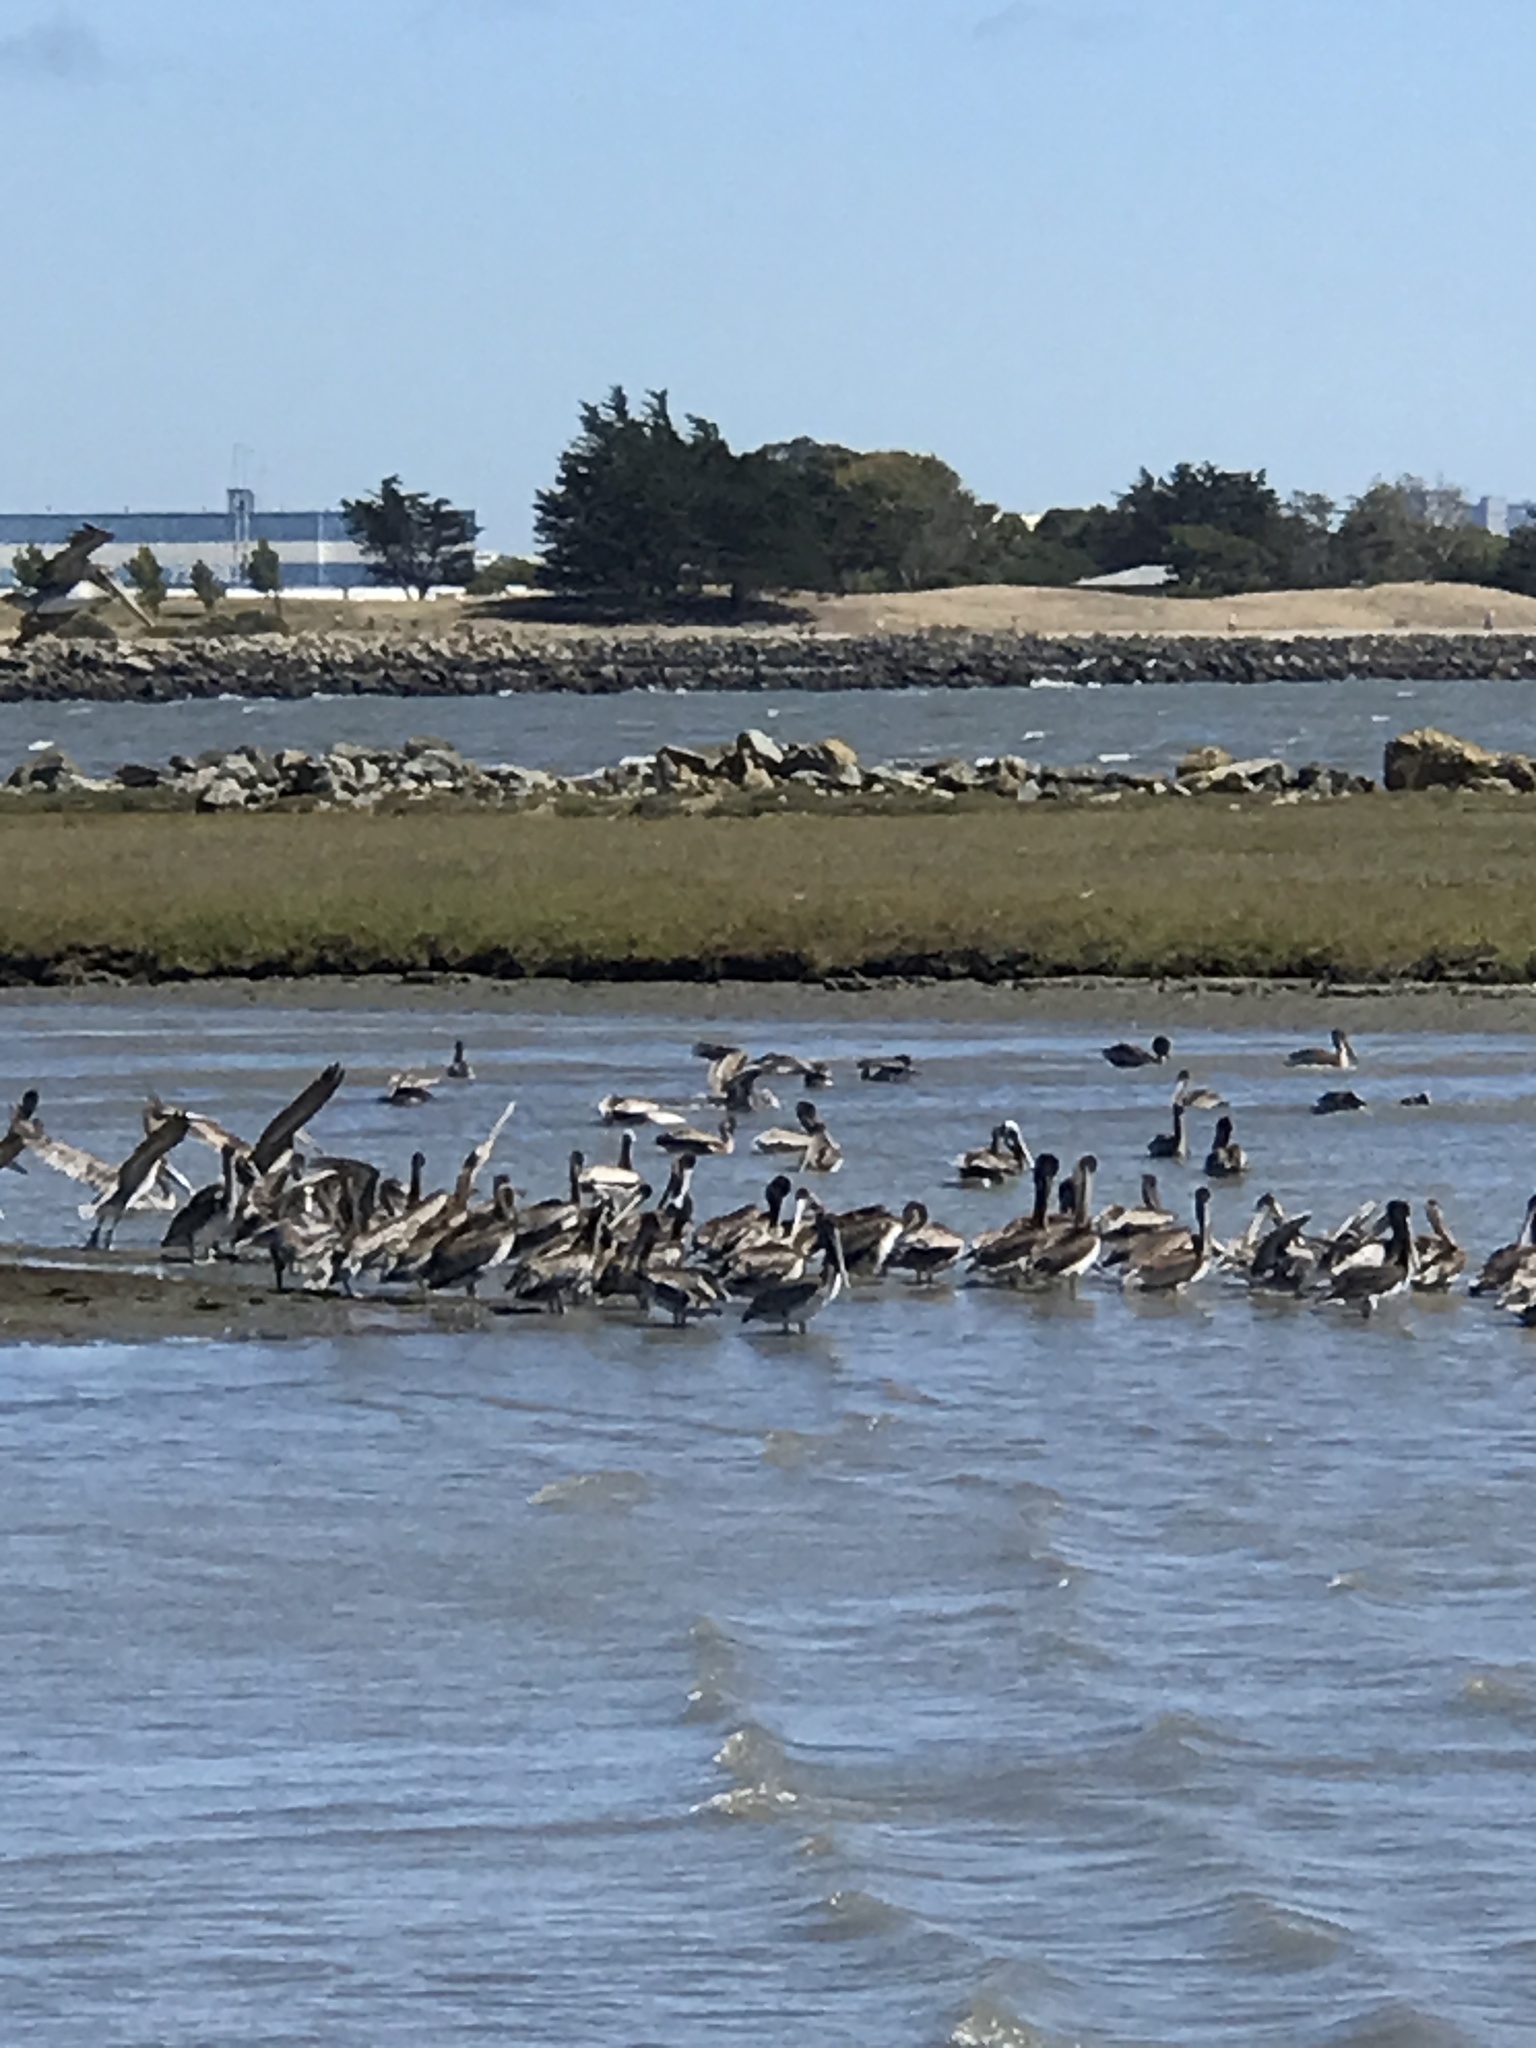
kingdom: Animalia
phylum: Chordata
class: Aves
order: Pelecaniformes
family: Pelecanidae
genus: Pelecanus
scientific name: Pelecanus occidentalis
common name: Brown pelican
